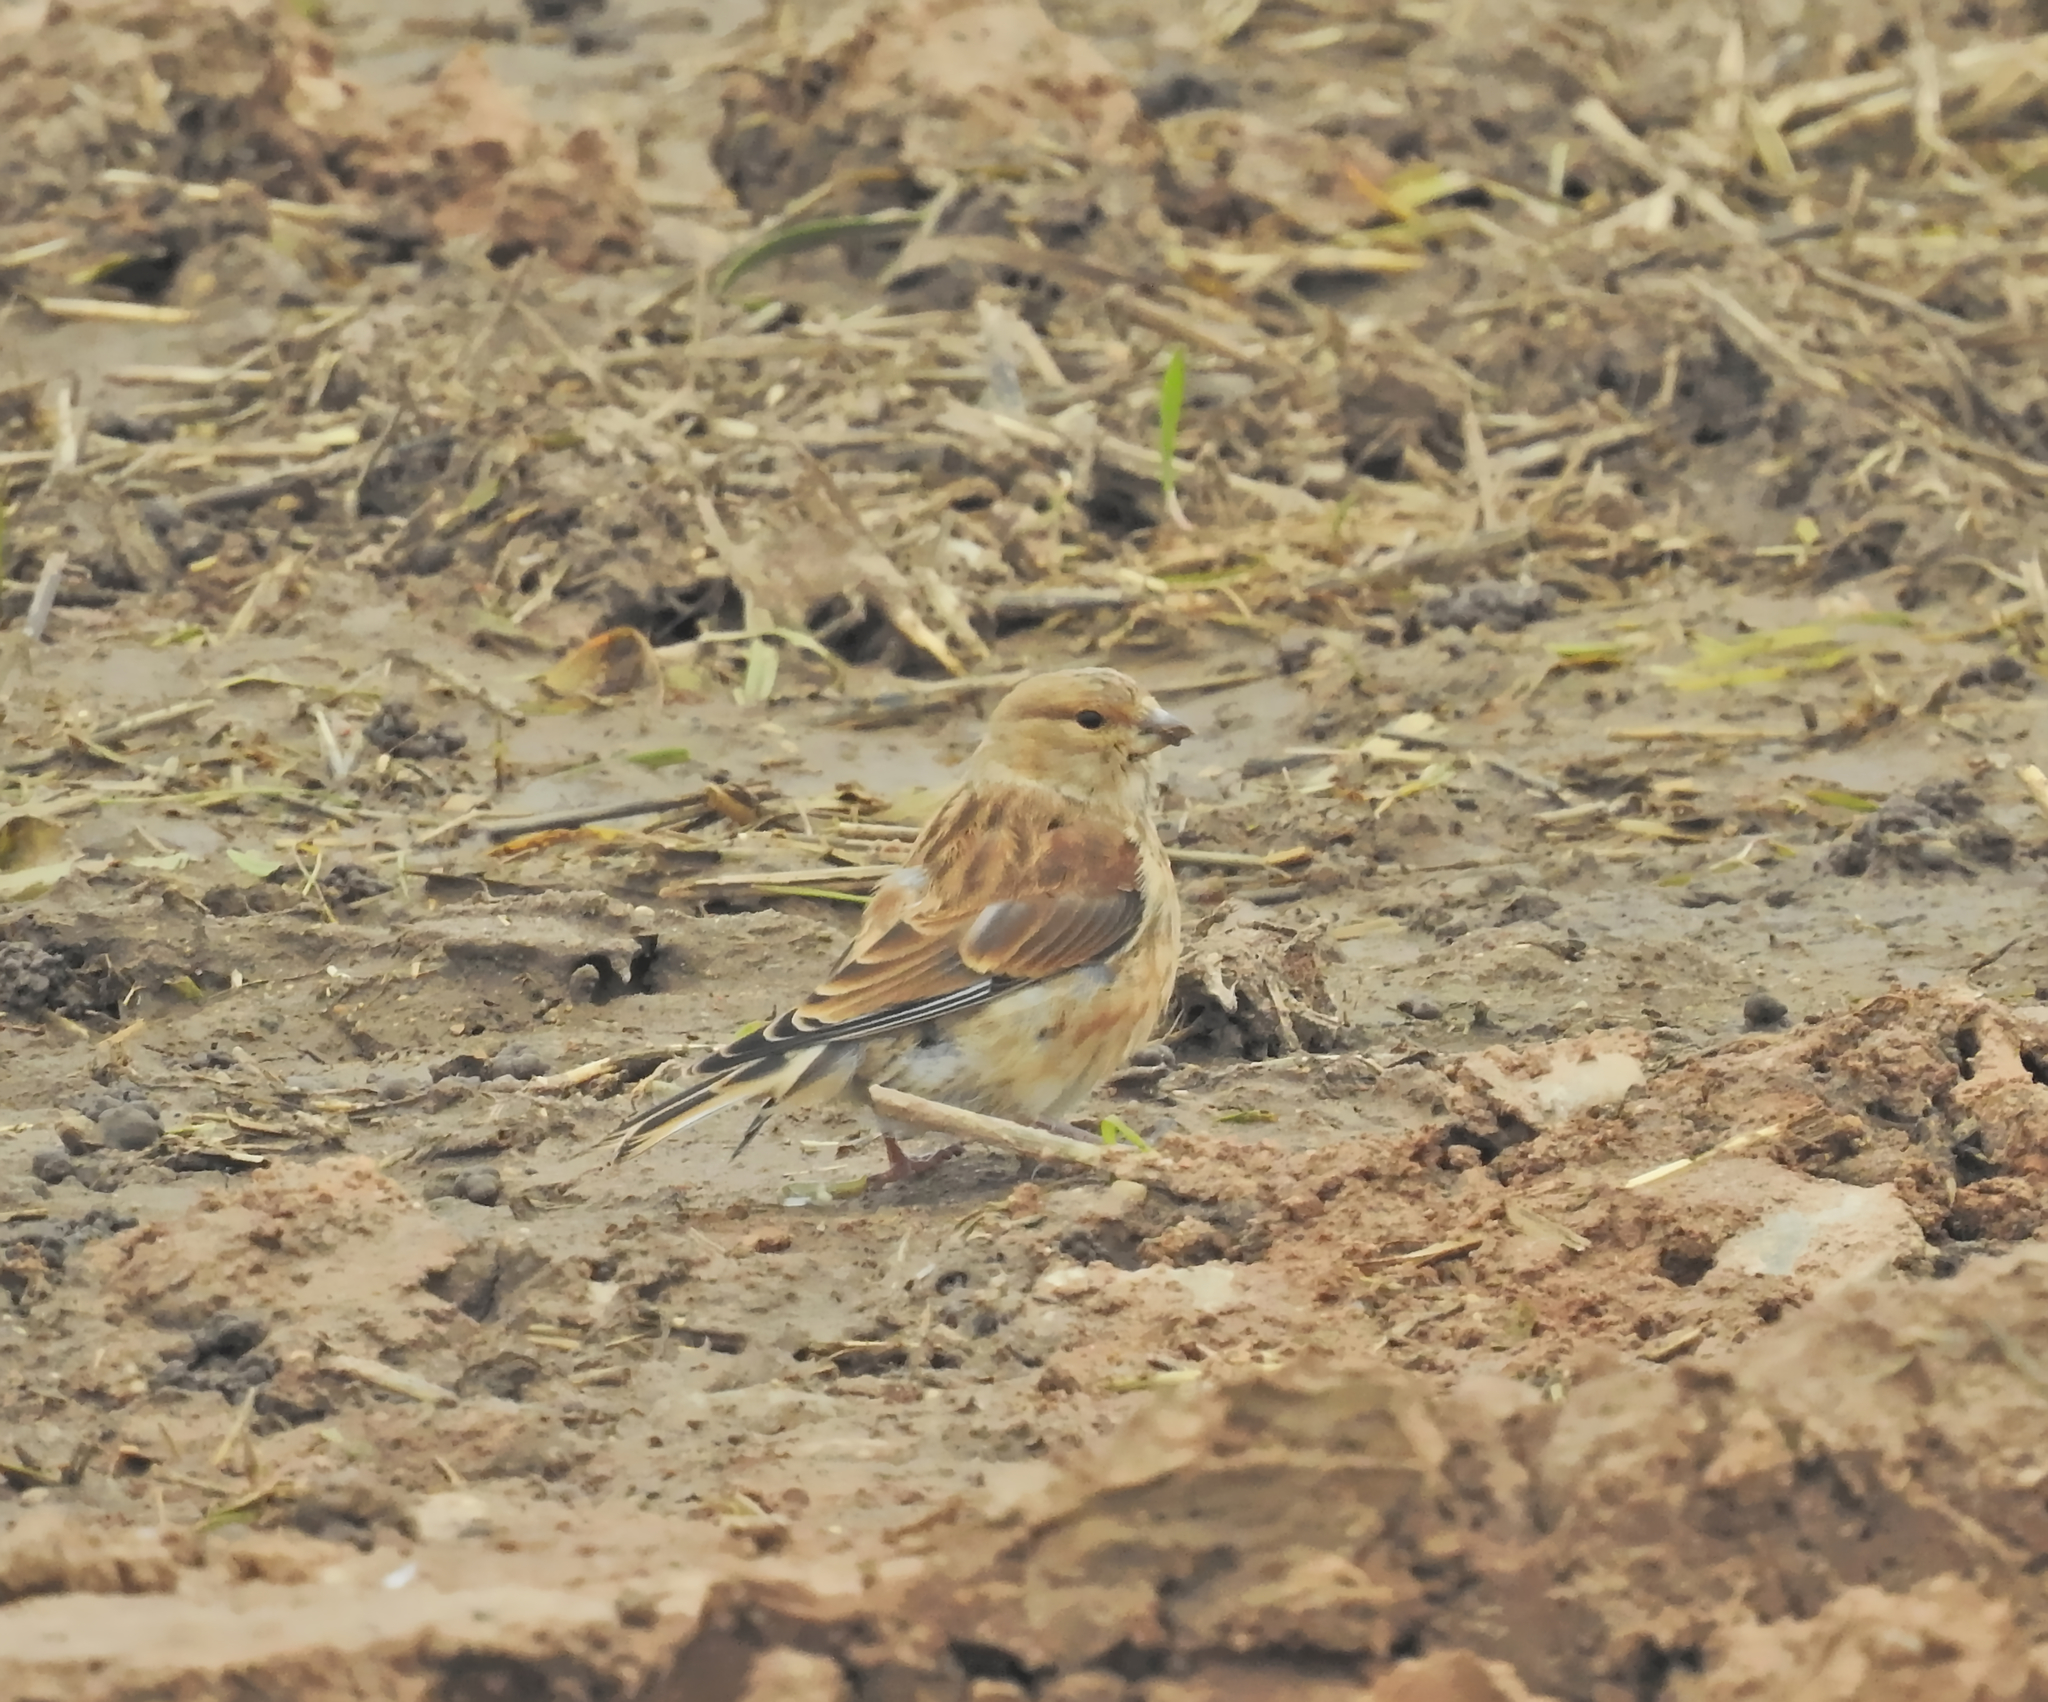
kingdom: Animalia
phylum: Chordata
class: Aves
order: Passeriformes
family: Fringillidae
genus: Linaria
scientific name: Linaria cannabina
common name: Common linnet
